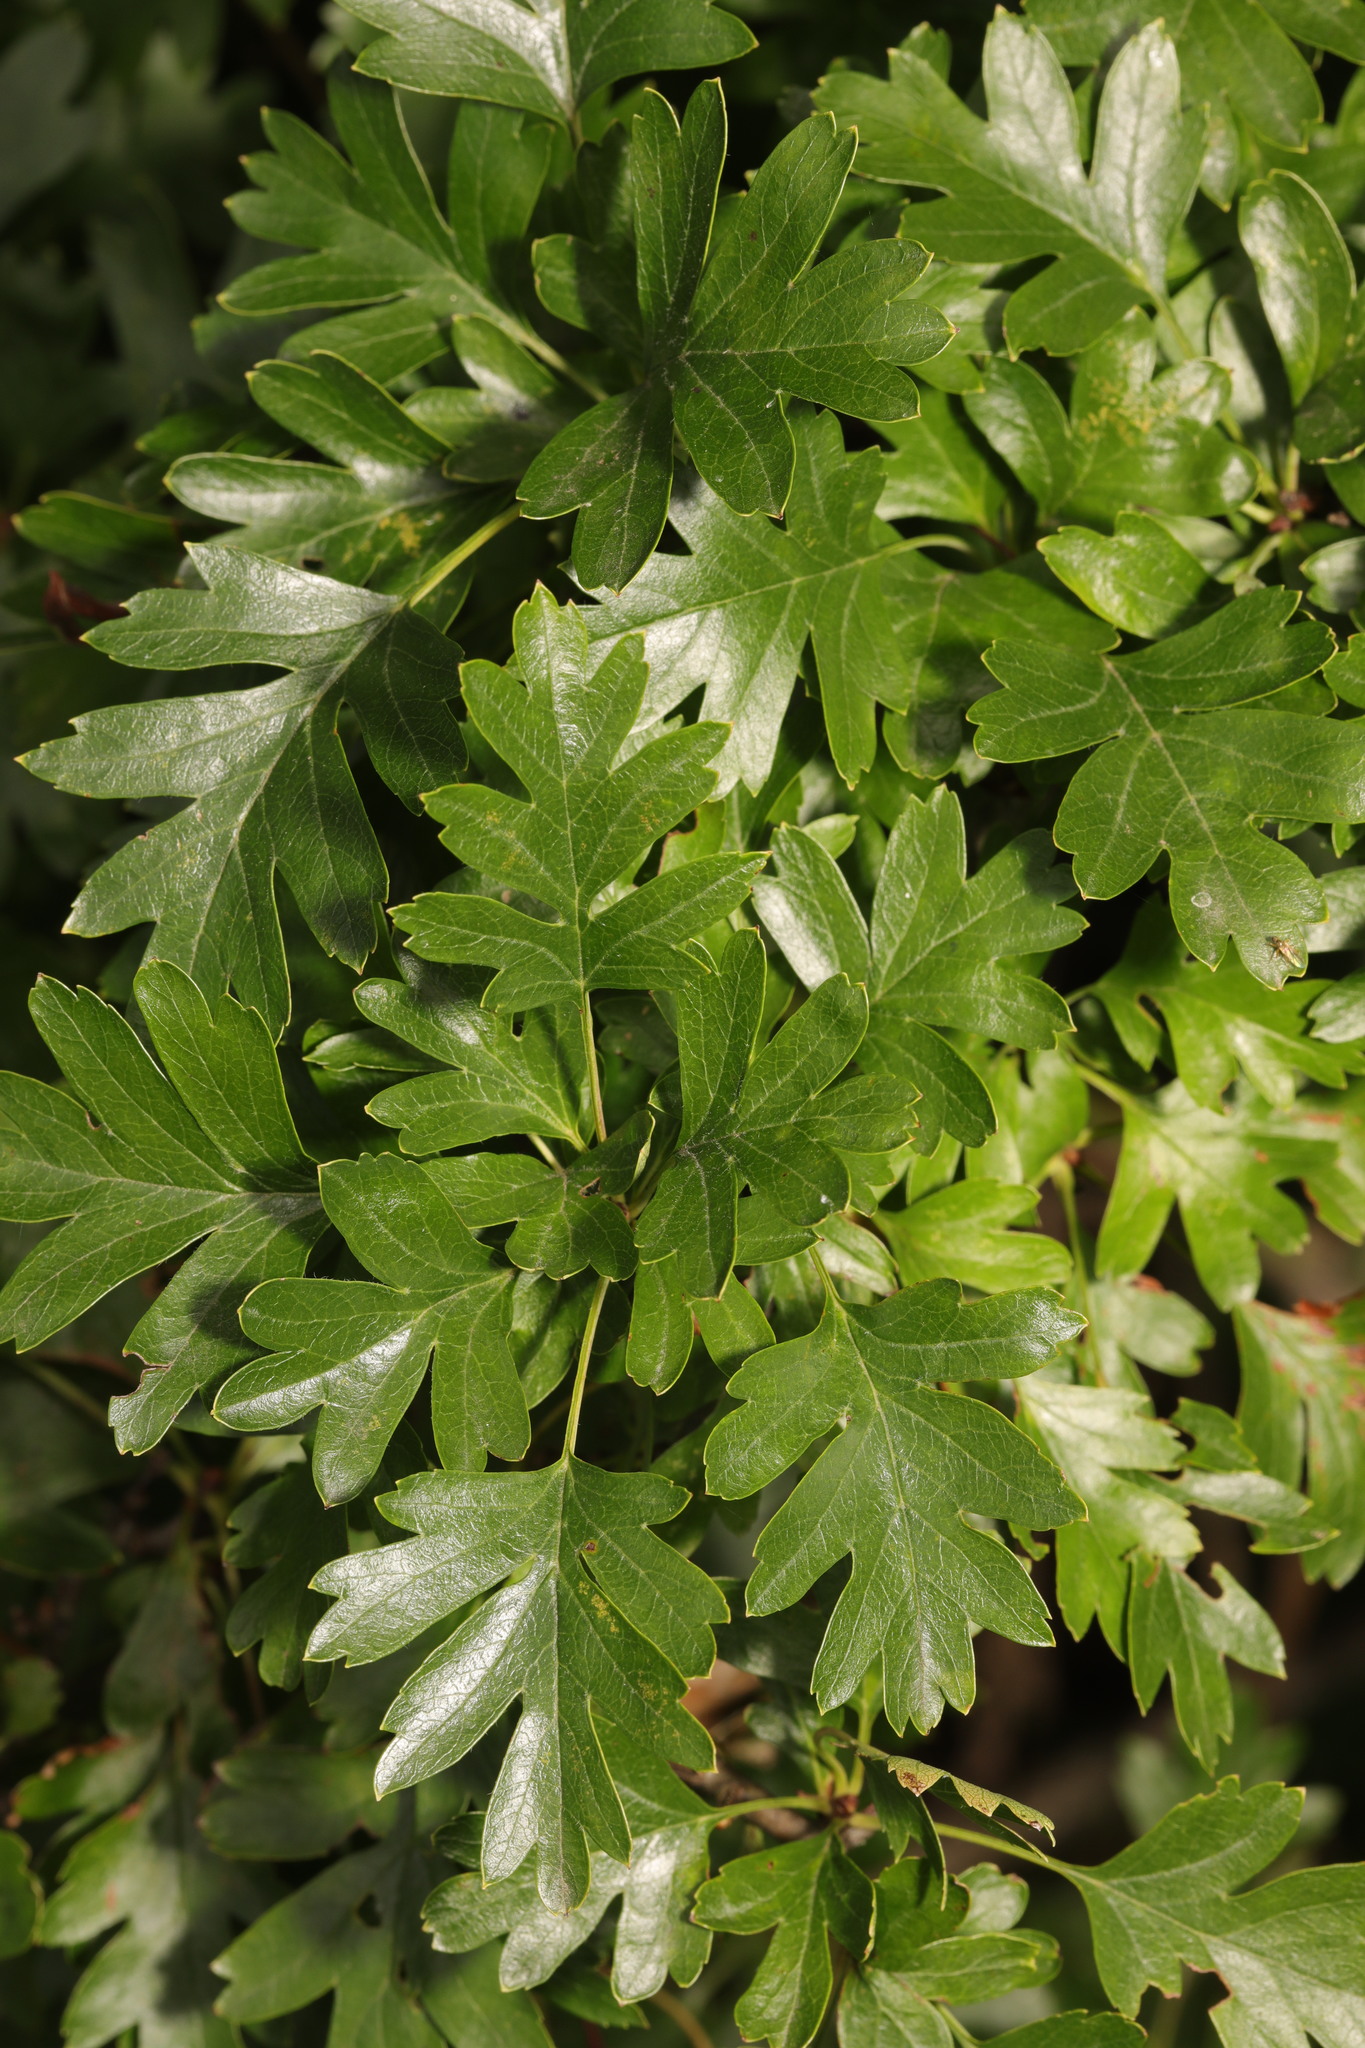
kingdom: Plantae
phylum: Tracheophyta
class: Magnoliopsida
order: Rosales
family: Rosaceae
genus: Crataegus
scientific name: Crataegus monogyna
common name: Hawthorn
